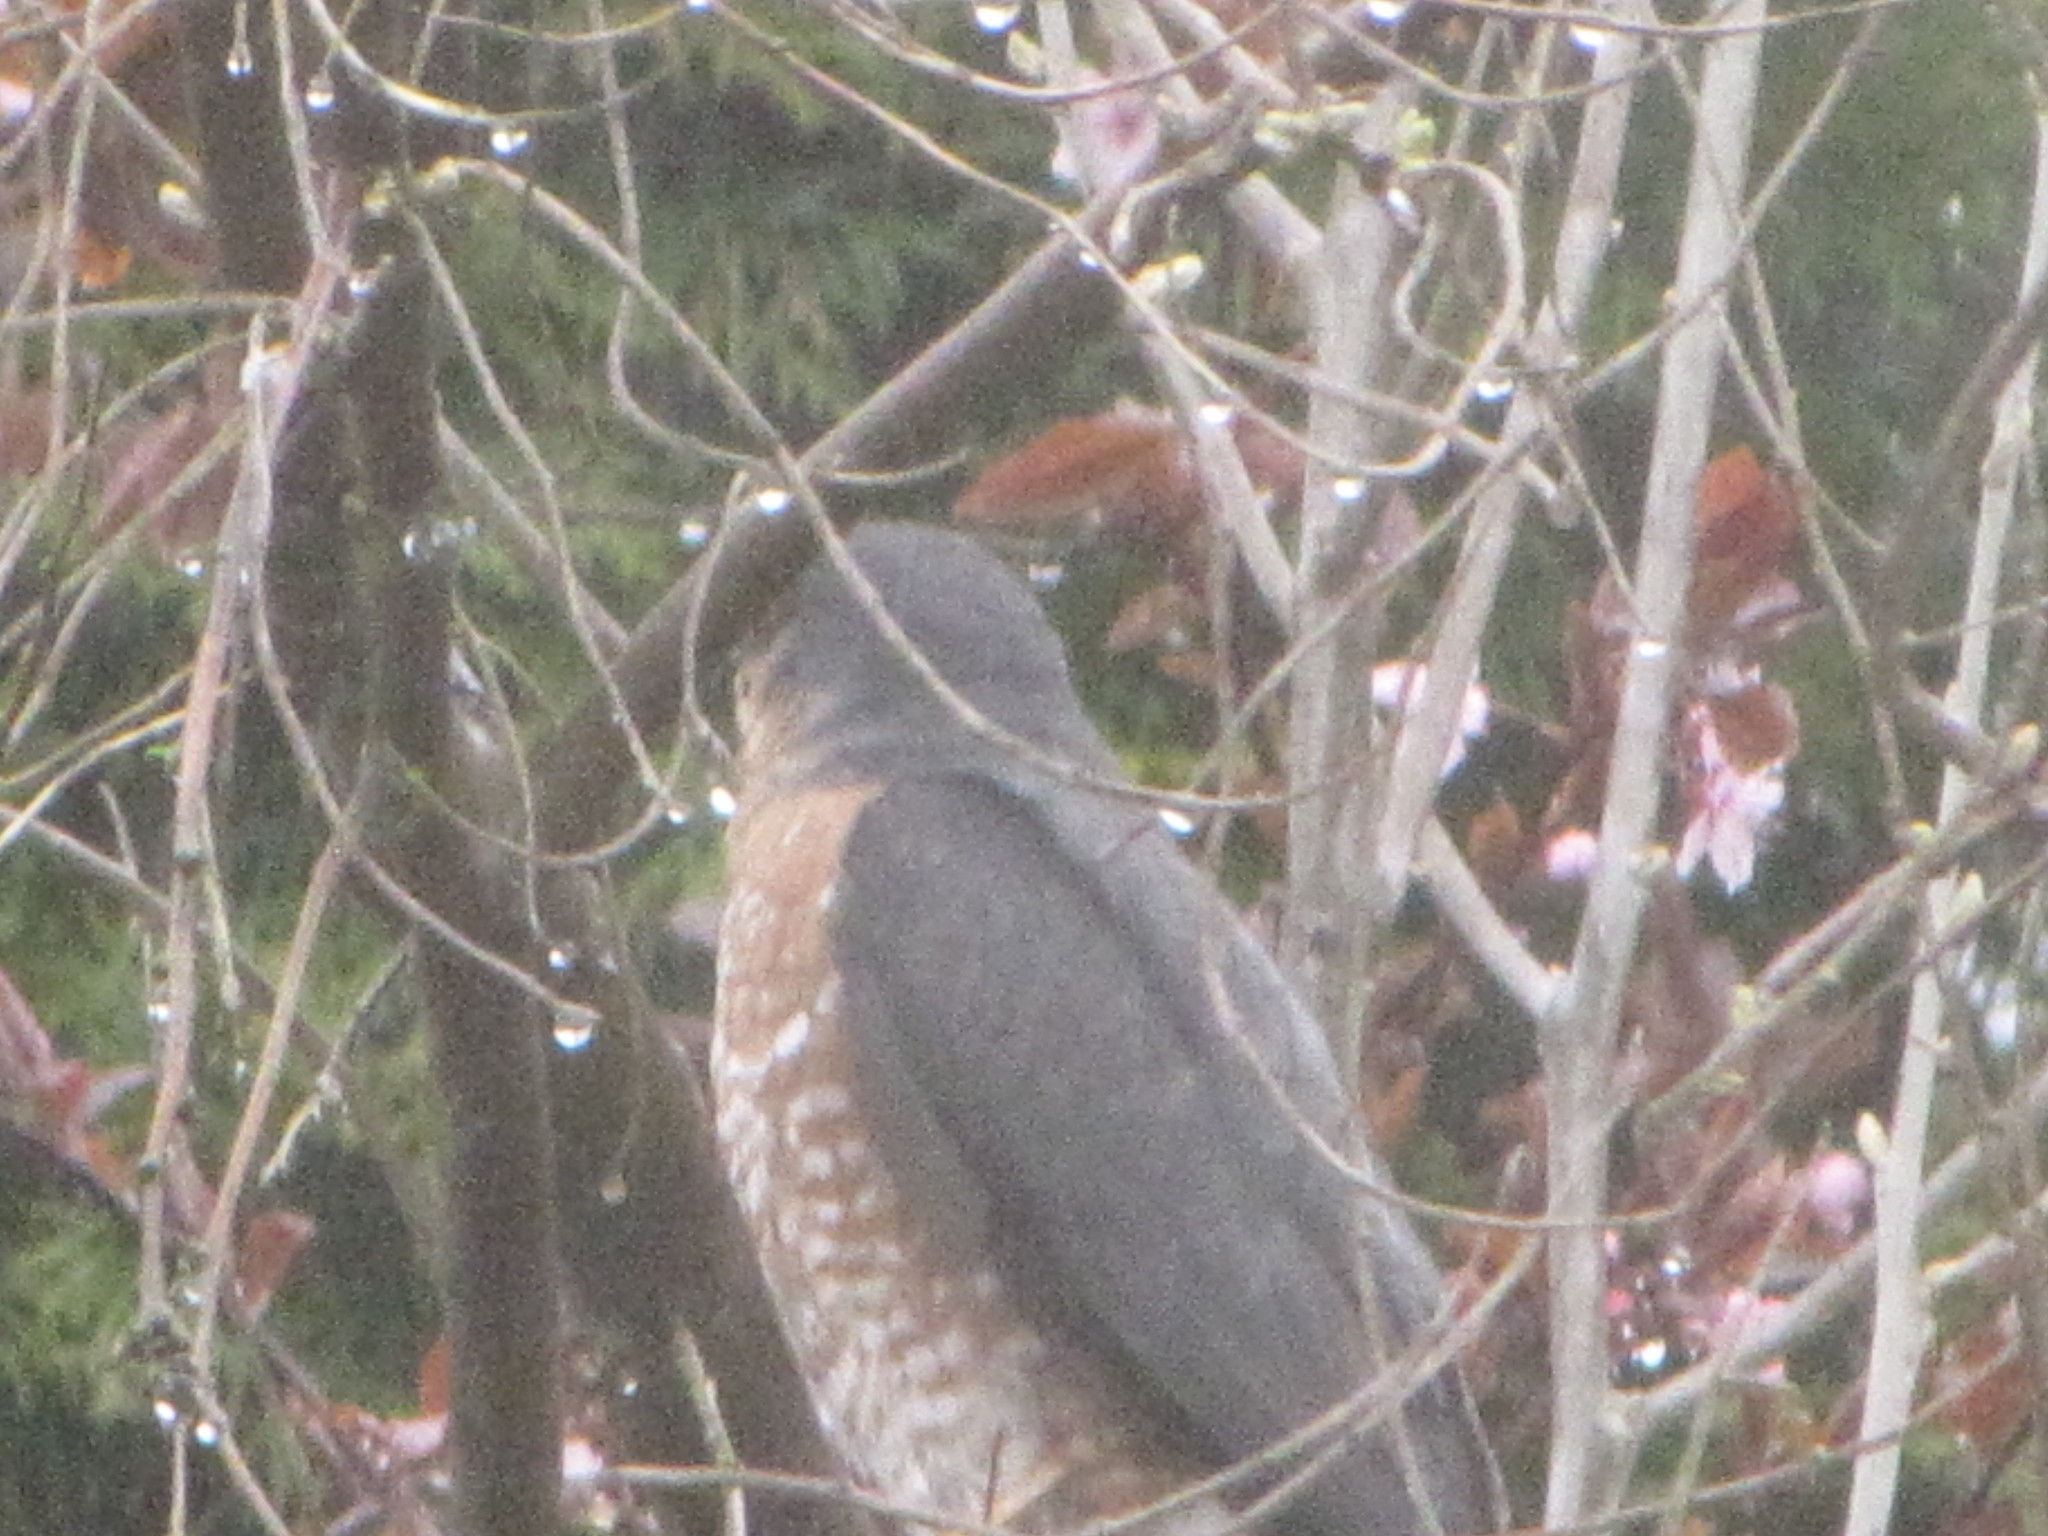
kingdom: Animalia
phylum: Chordata
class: Aves
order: Accipitriformes
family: Accipitridae
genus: Accipiter
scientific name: Accipiter striatus
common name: Sharp-shinned hawk
